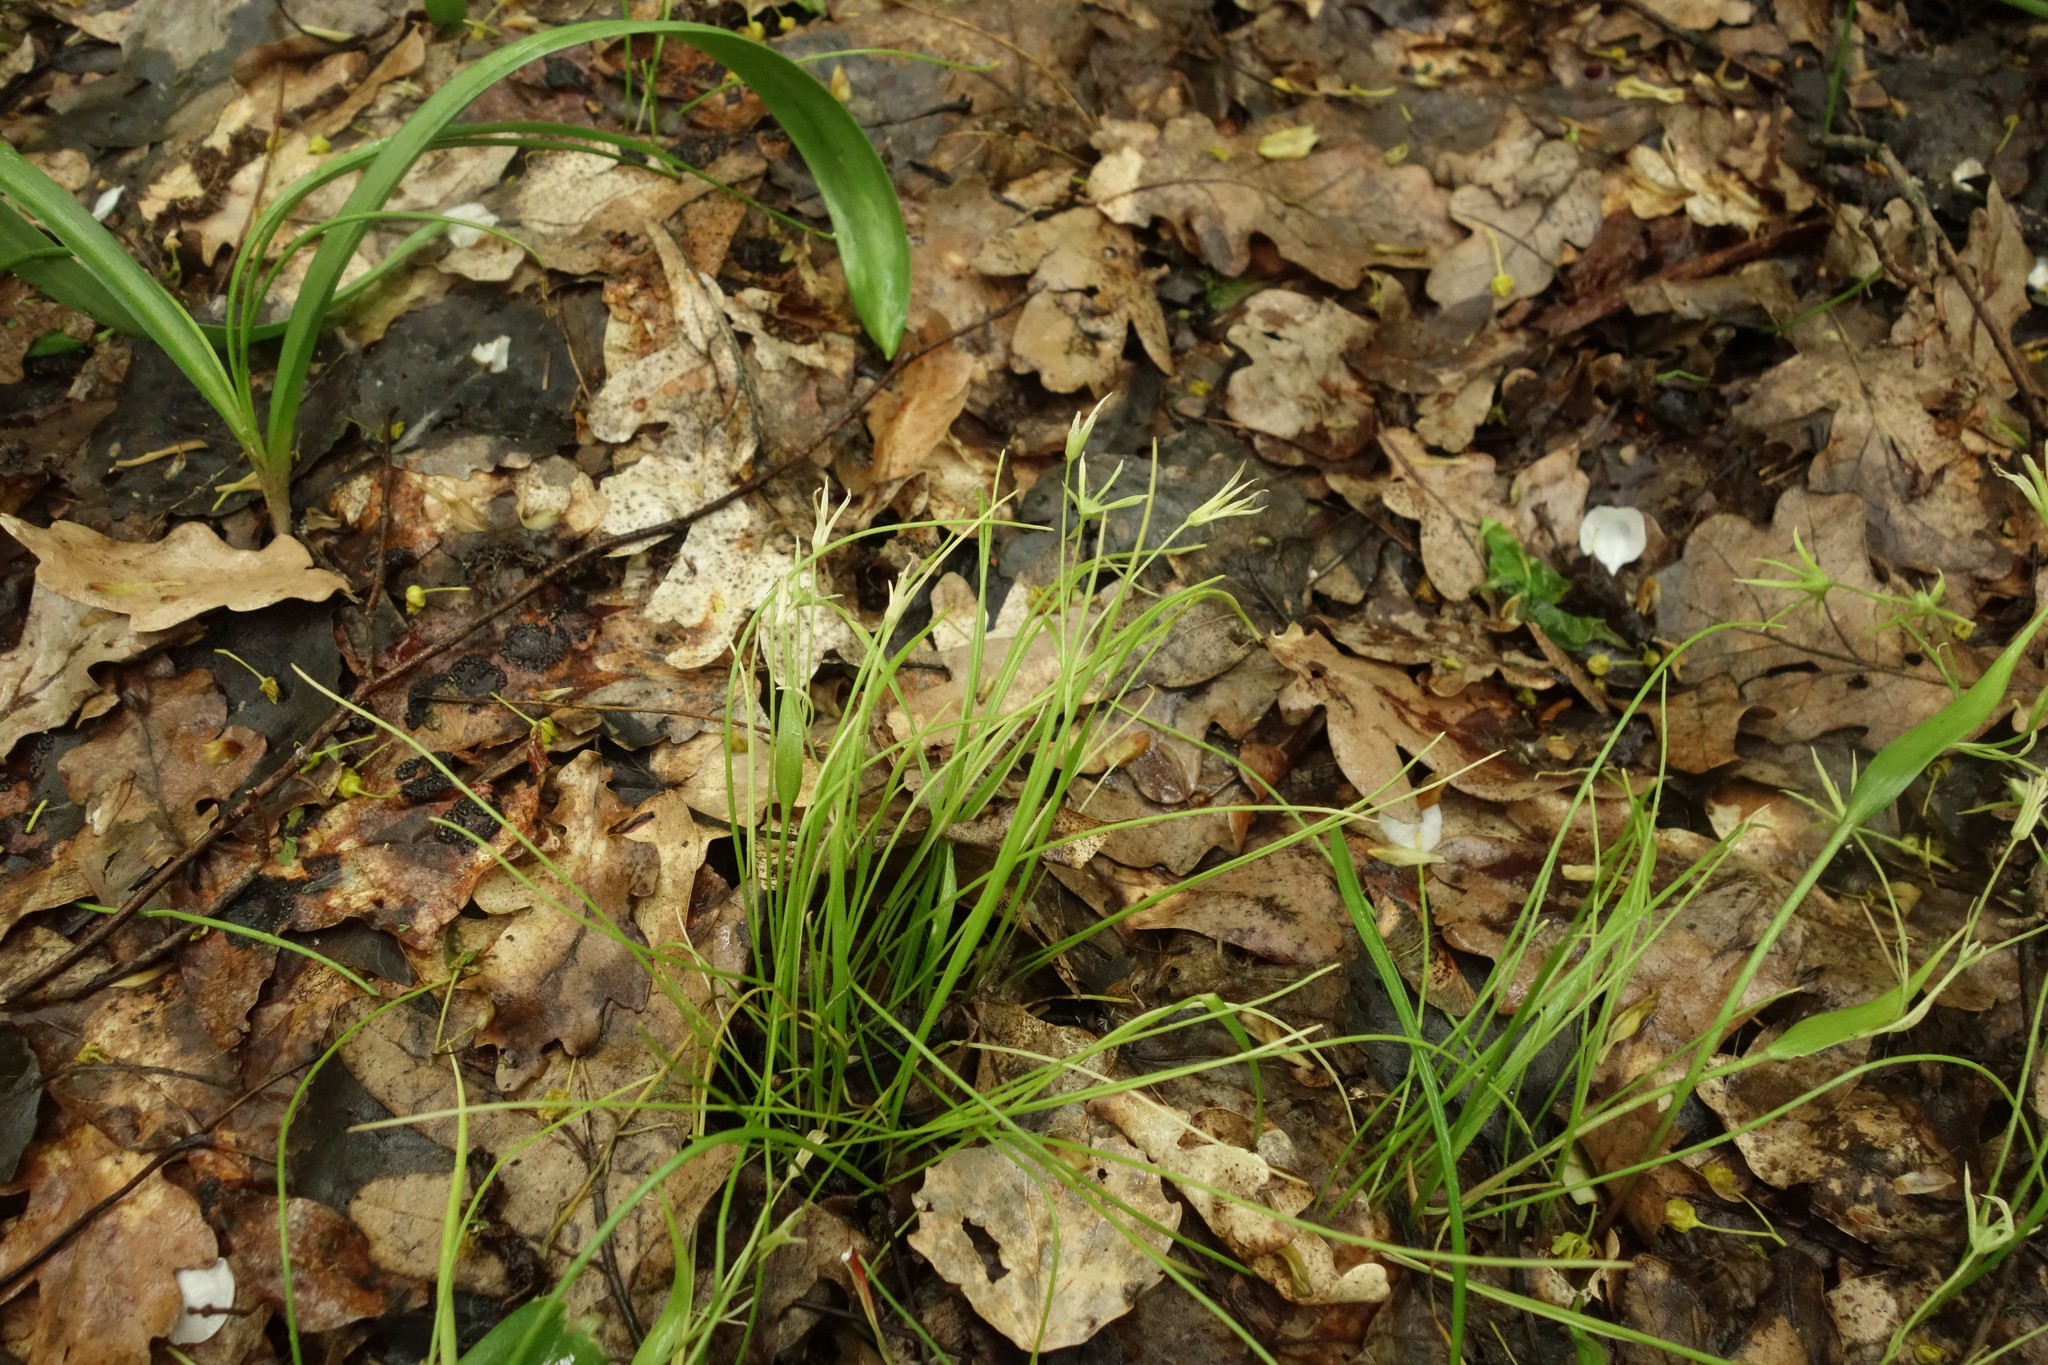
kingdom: Plantae
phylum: Tracheophyta
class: Liliopsida
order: Liliales
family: Liliaceae
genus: Gagea
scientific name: Gagea minima
